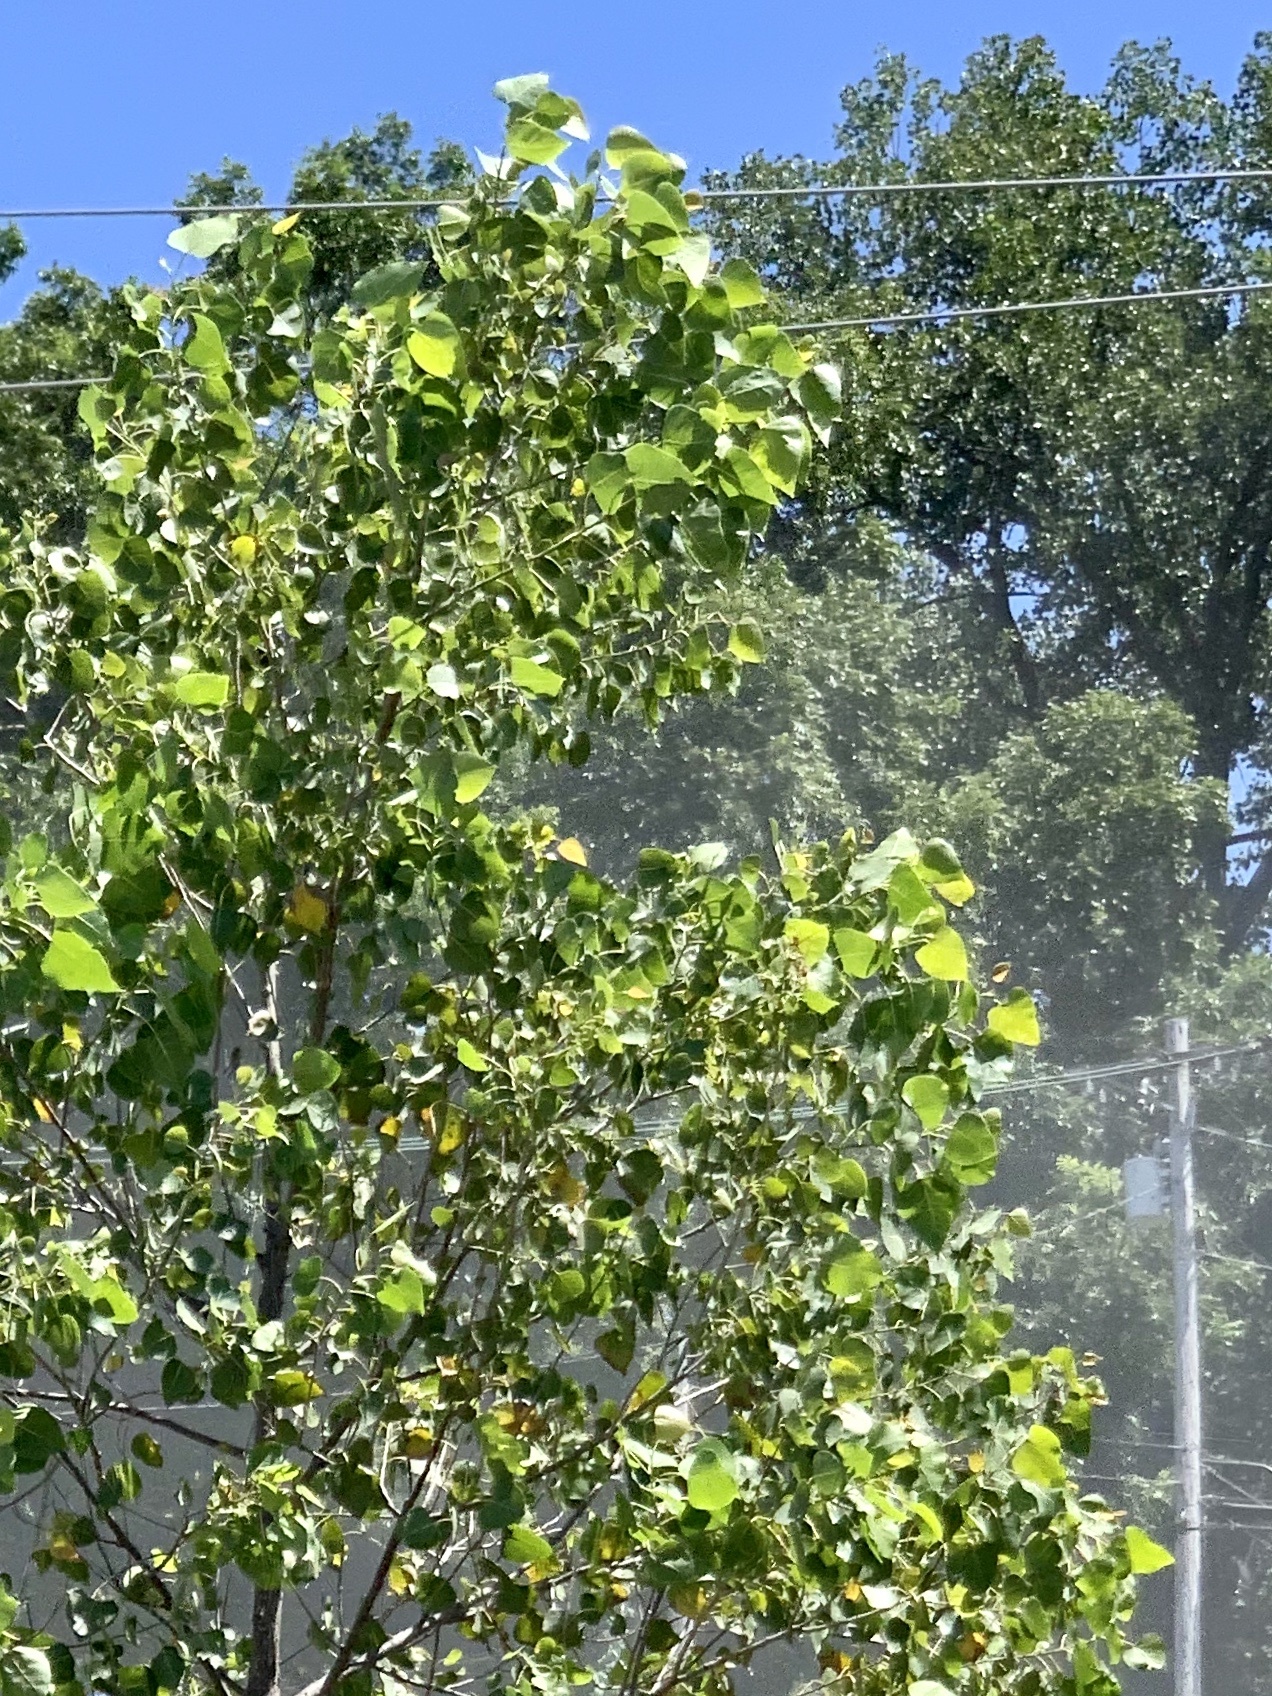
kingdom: Plantae
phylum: Tracheophyta
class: Magnoliopsida
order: Malpighiales
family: Salicaceae
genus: Populus
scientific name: Populus deltoides
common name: Eastern cottonwood
